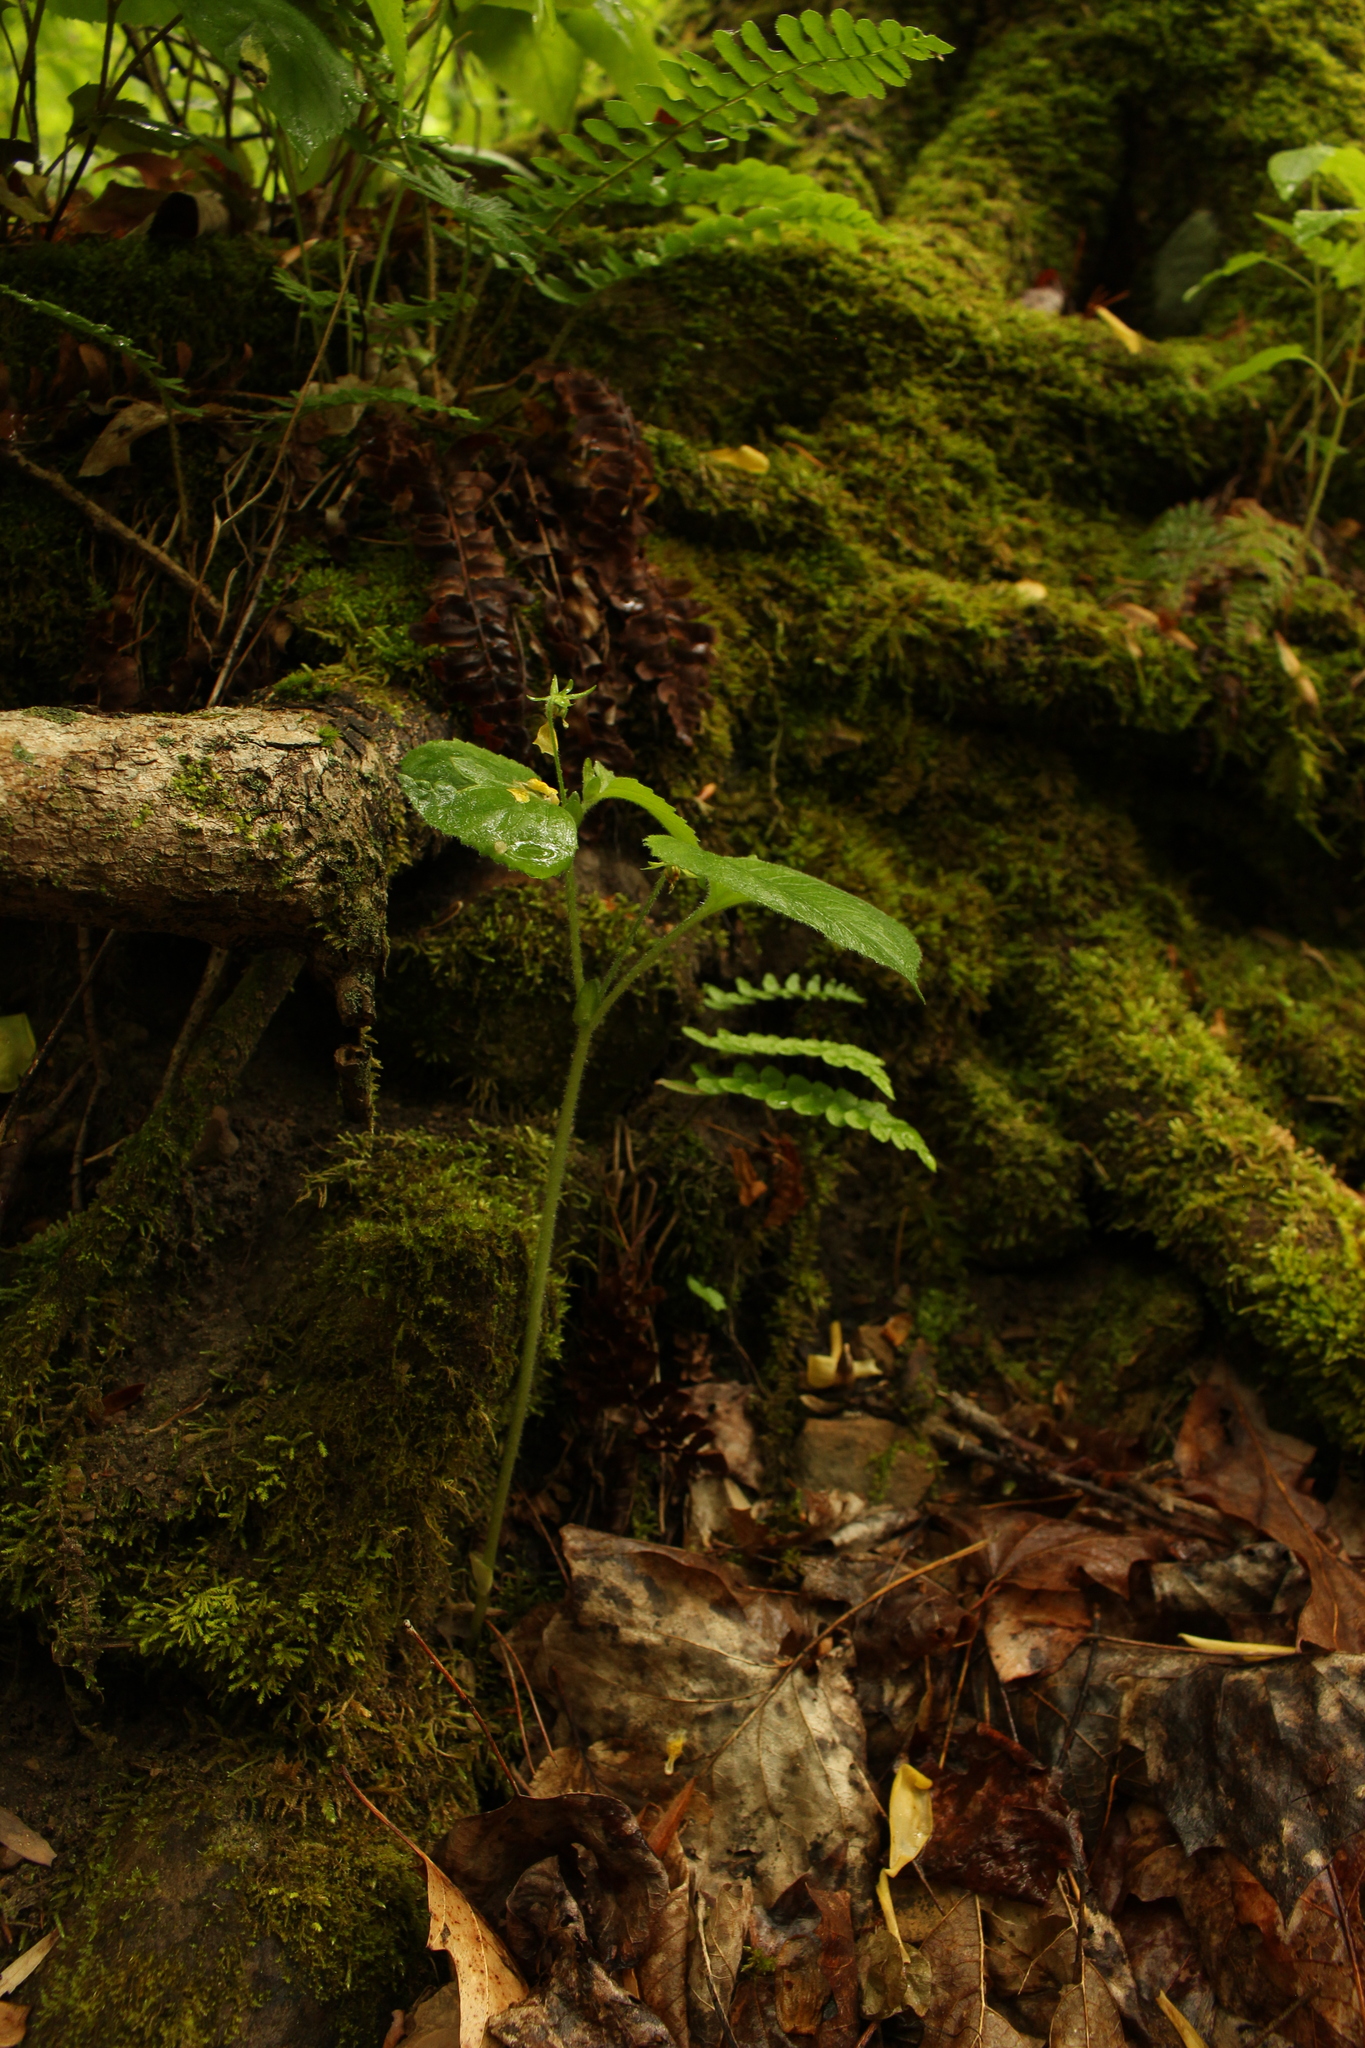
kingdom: Plantae
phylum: Tracheophyta
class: Magnoliopsida
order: Malpighiales
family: Violaceae
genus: Viola
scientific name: Viola pubescens
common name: Yellow forest violet
